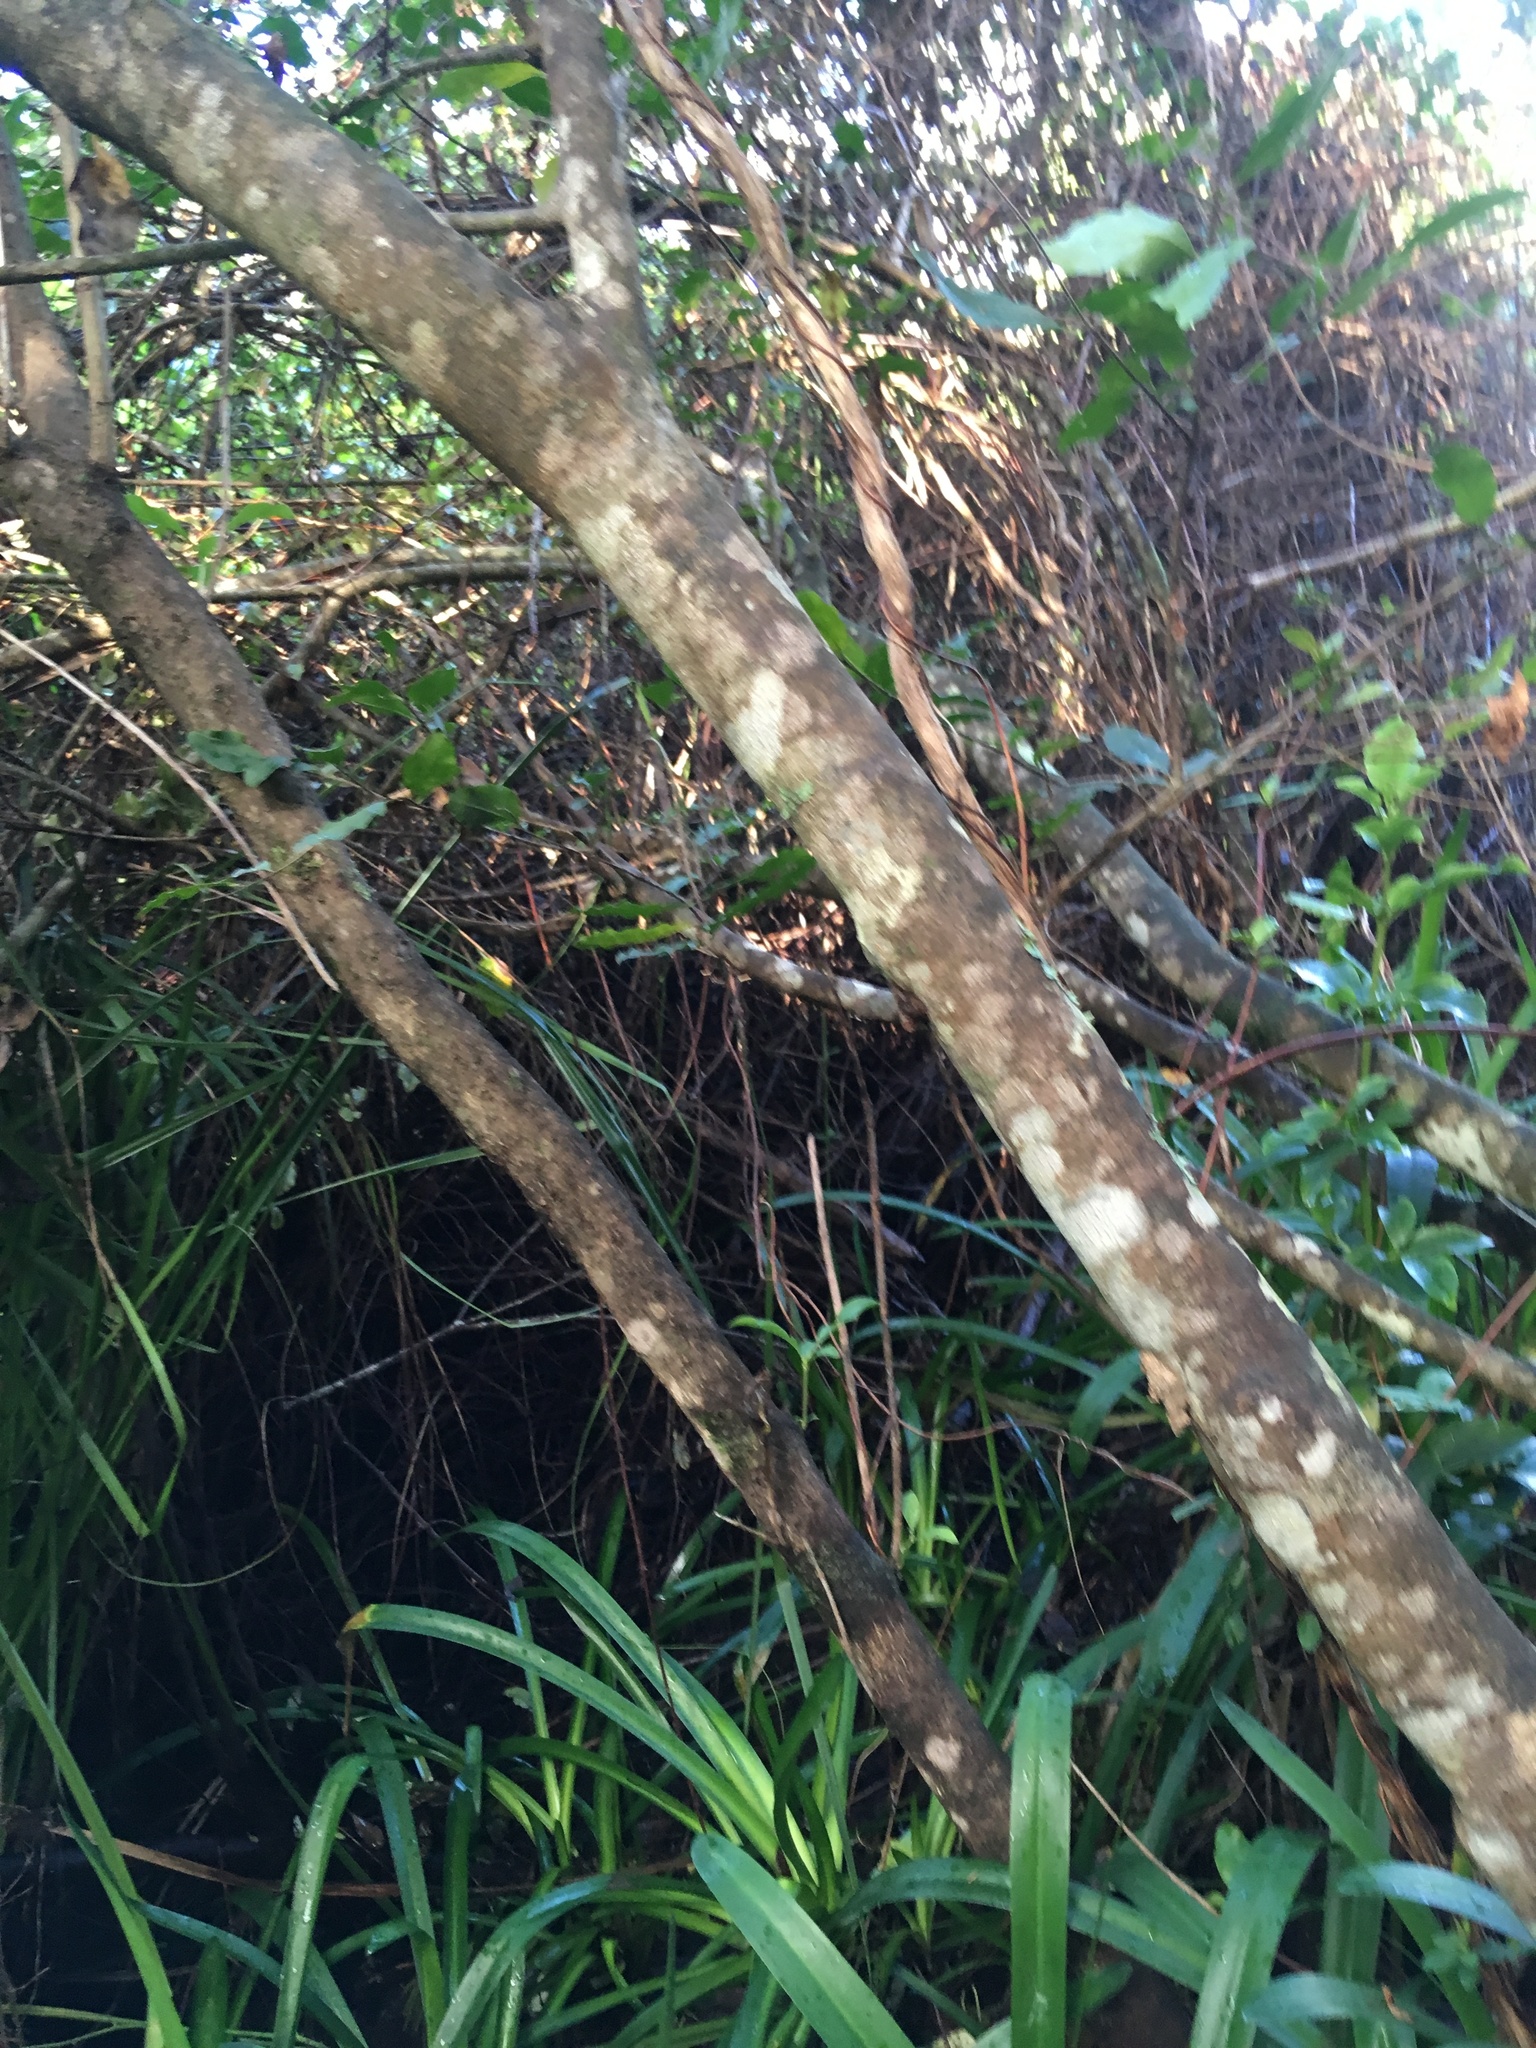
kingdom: Plantae
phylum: Tracheophyta
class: Liliopsida
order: Asparagales
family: Amaryllidaceae
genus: Agapanthus
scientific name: Agapanthus praecox
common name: African-lily
